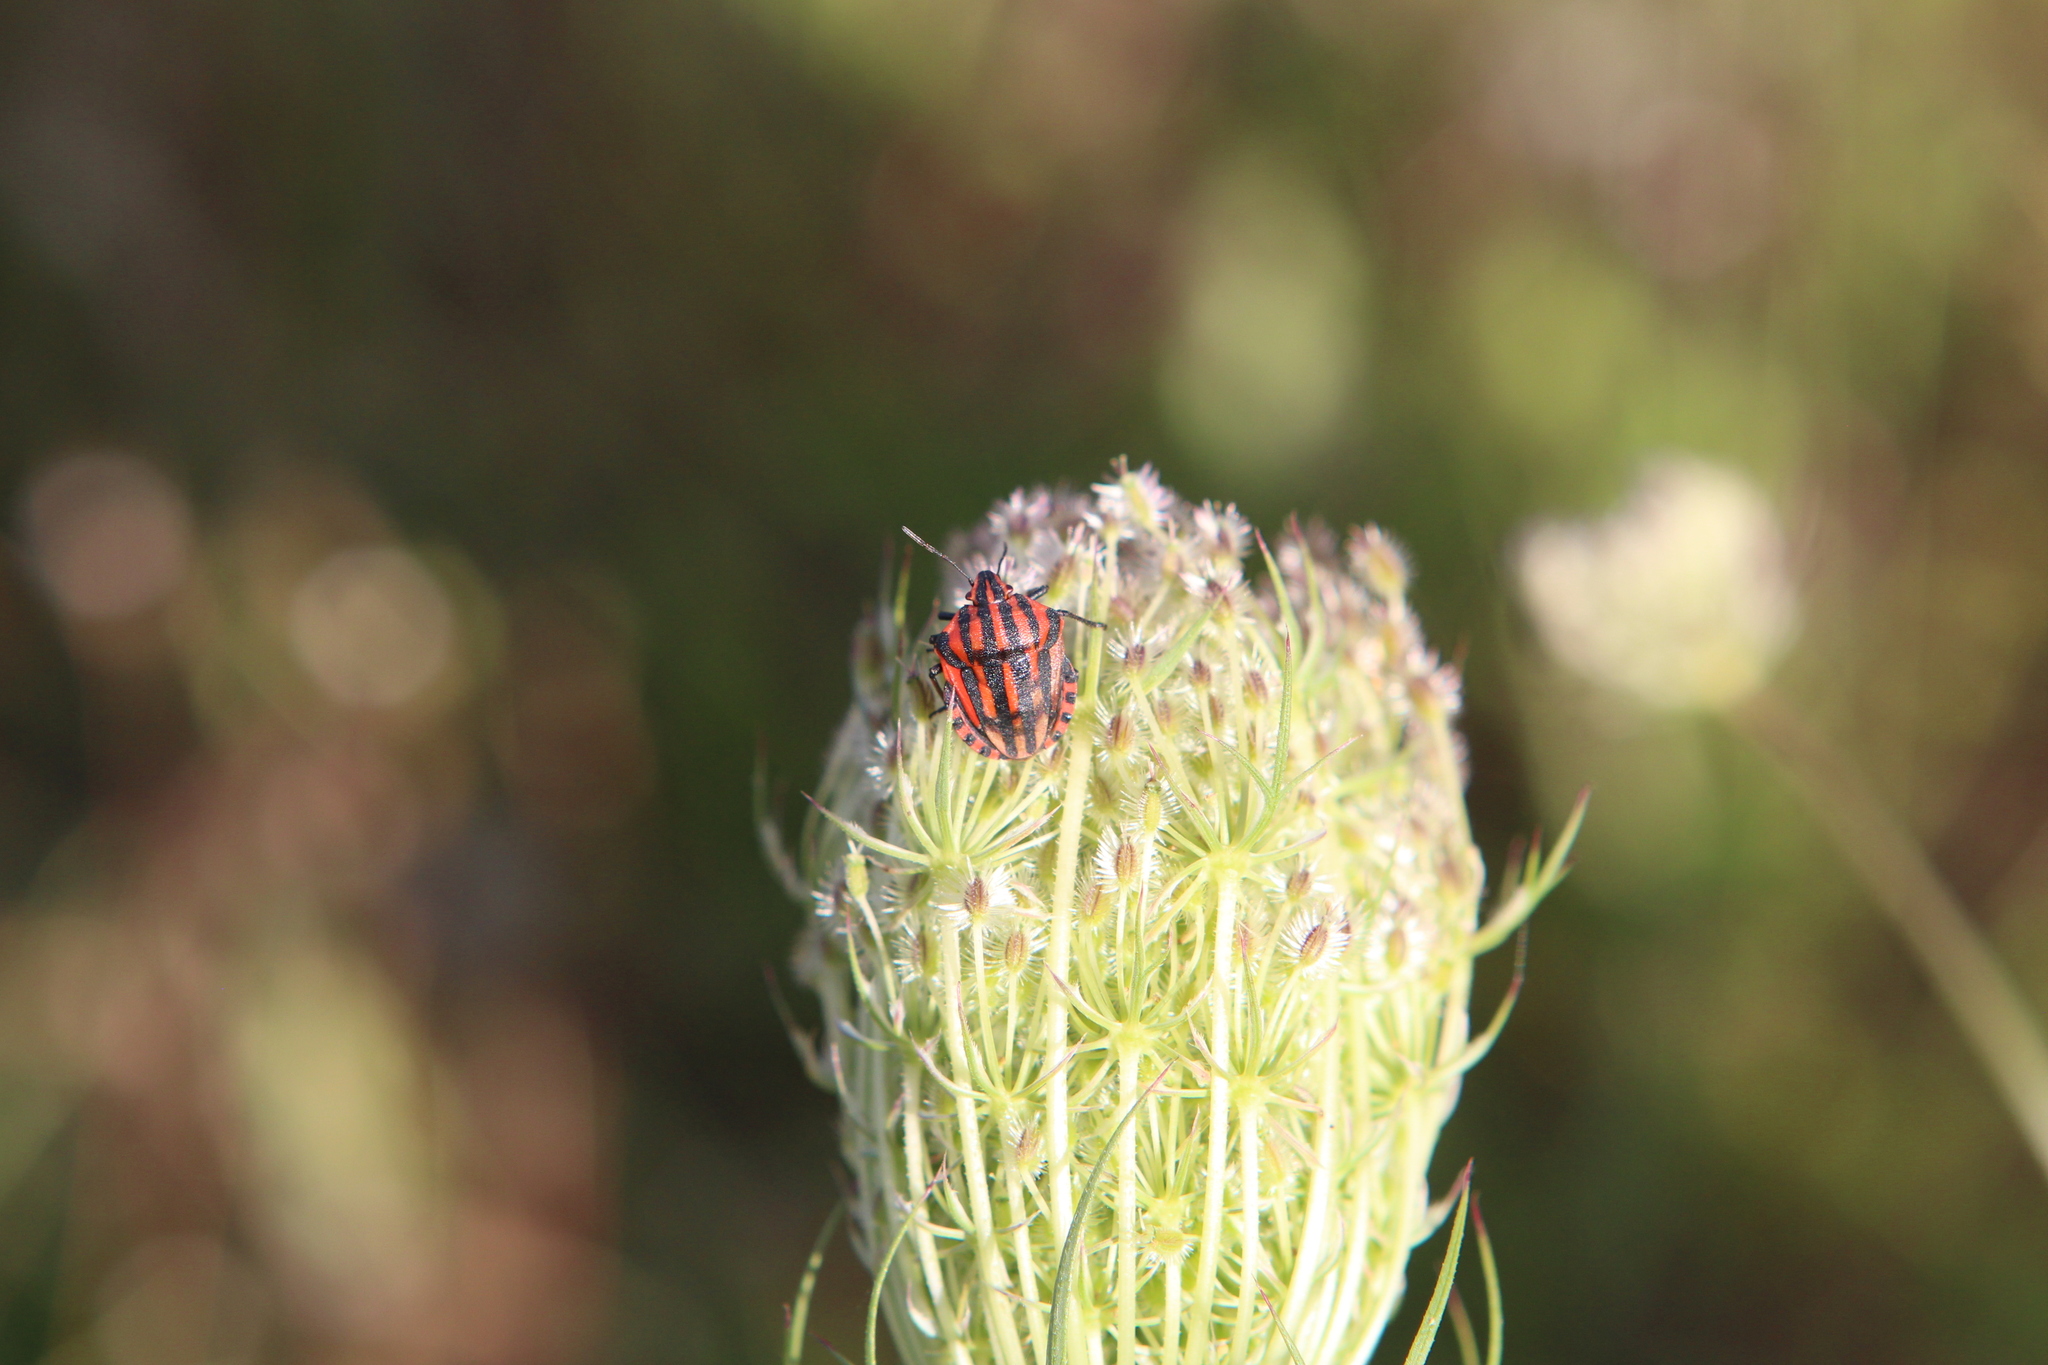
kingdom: Animalia
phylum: Arthropoda
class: Insecta
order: Hemiptera
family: Pentatomidae
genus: Graphosoma
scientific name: Graphosoma italicum
